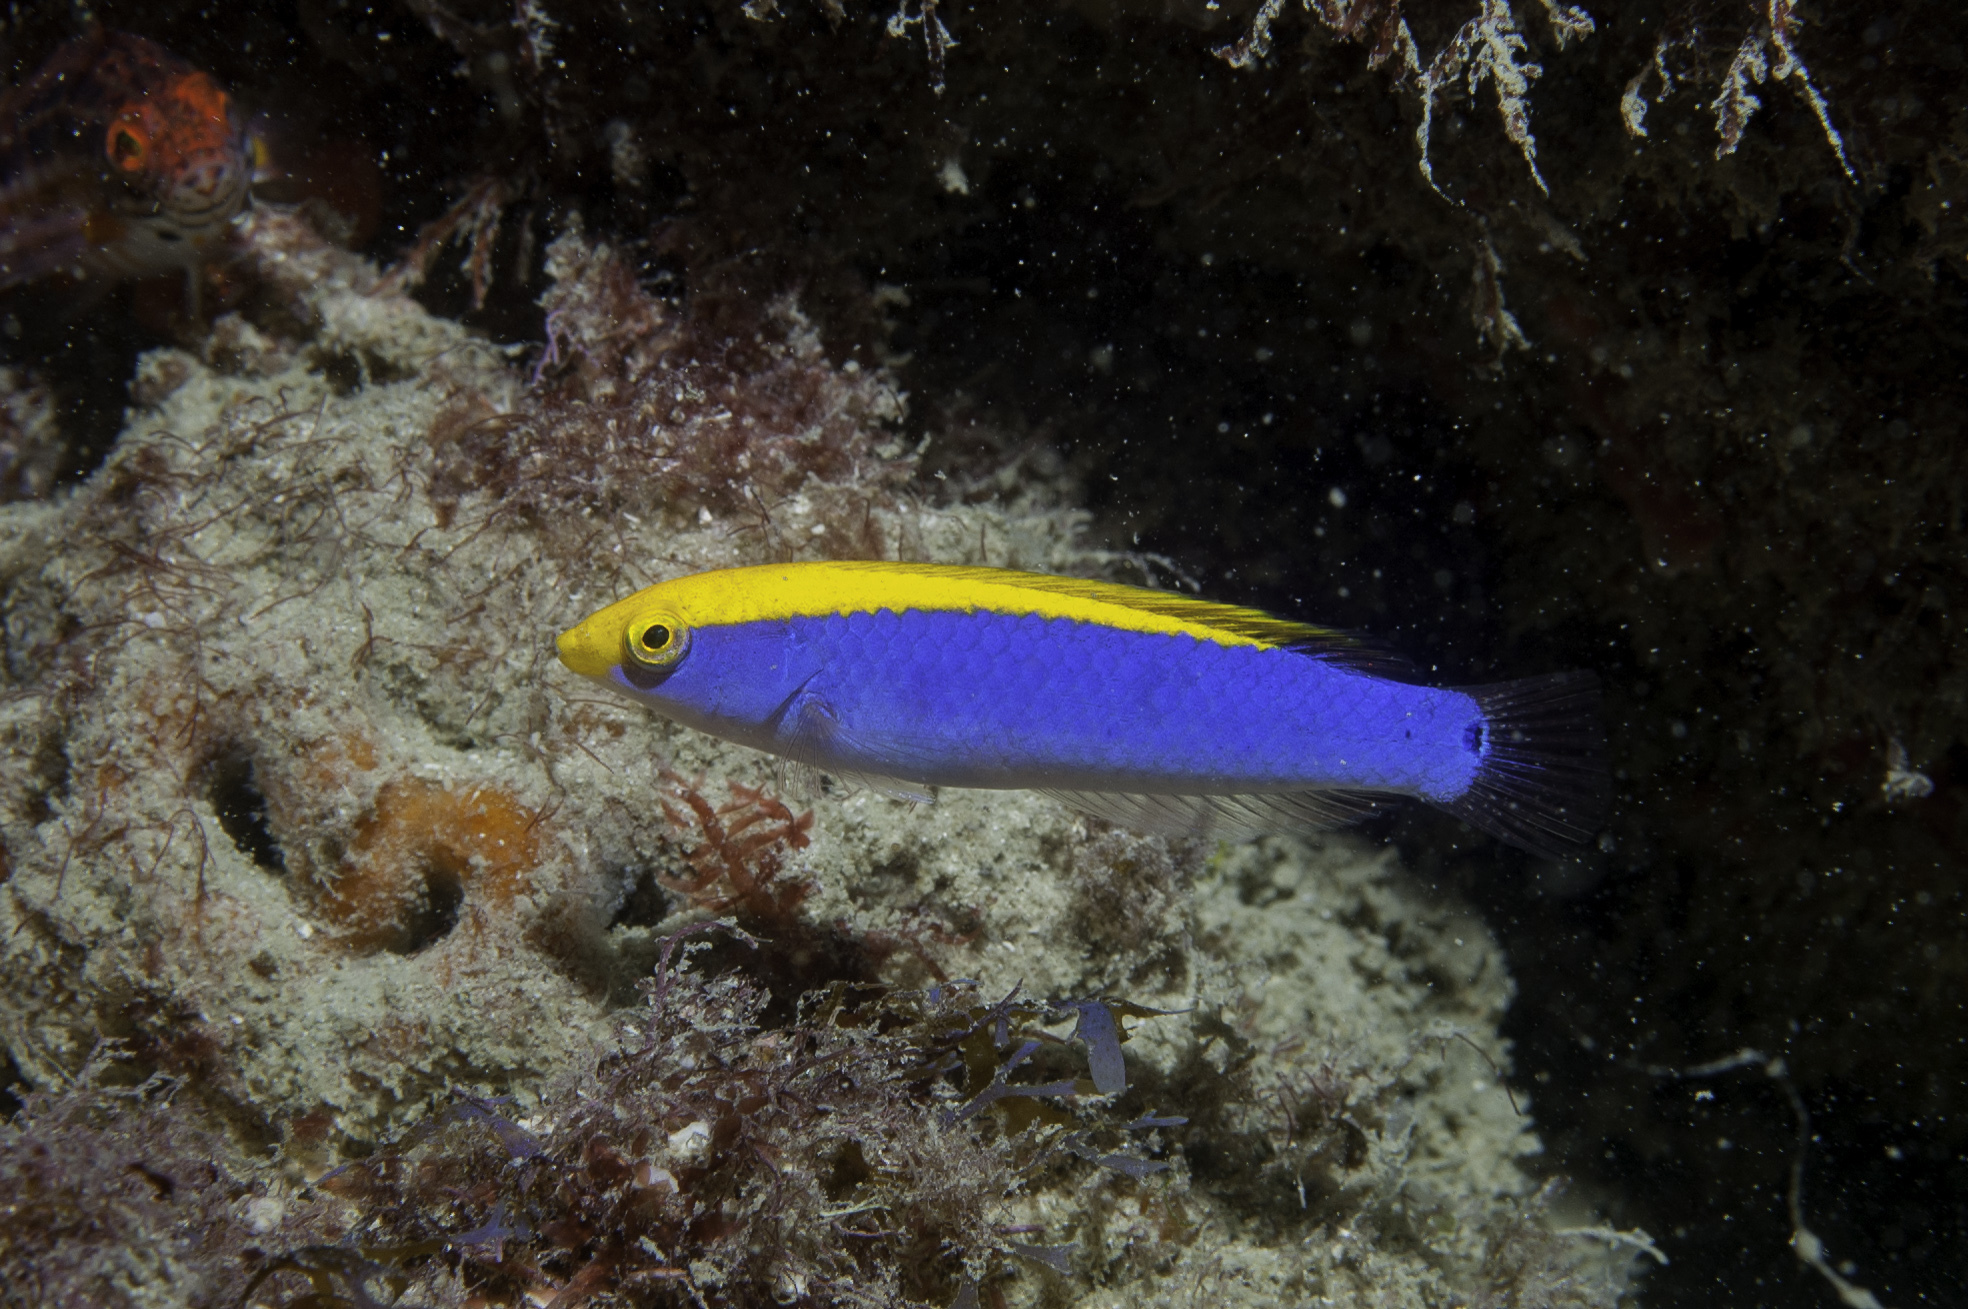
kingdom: Animalia
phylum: Chordata
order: Perciformes
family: Labridae
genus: Halichoeres
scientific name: Halichoeres dimidiatus
